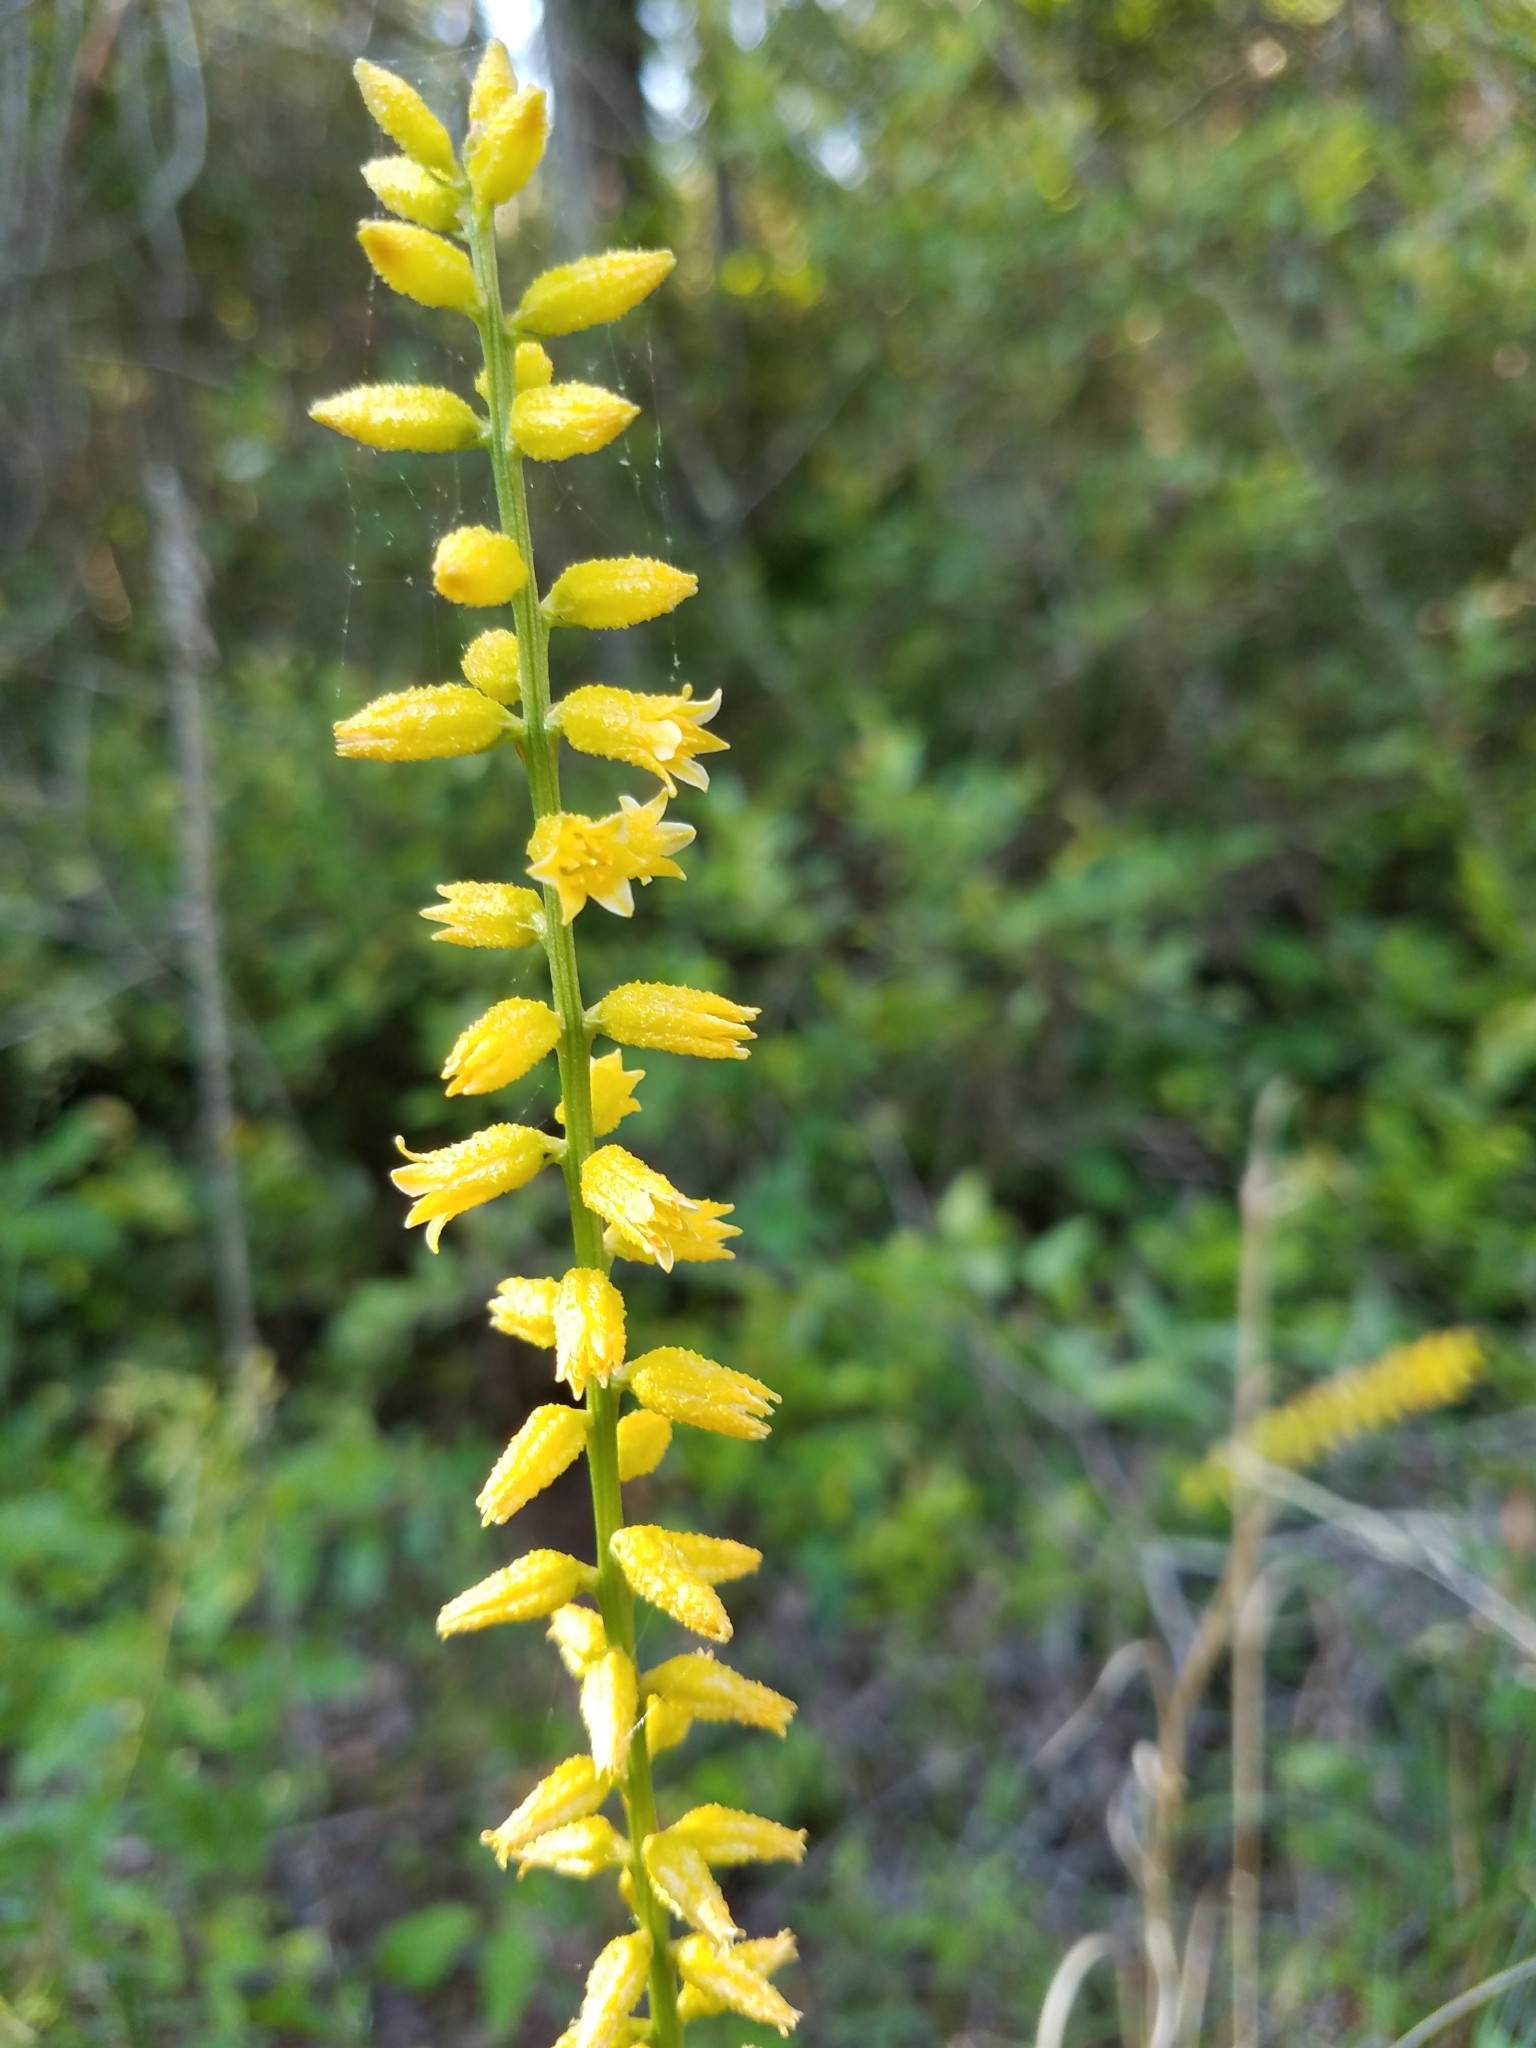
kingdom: Plantae
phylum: Tracheophyta
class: Liliopsida
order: Dioscoreales
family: Nartheciaceae
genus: Aletris
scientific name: Aletris lutea
